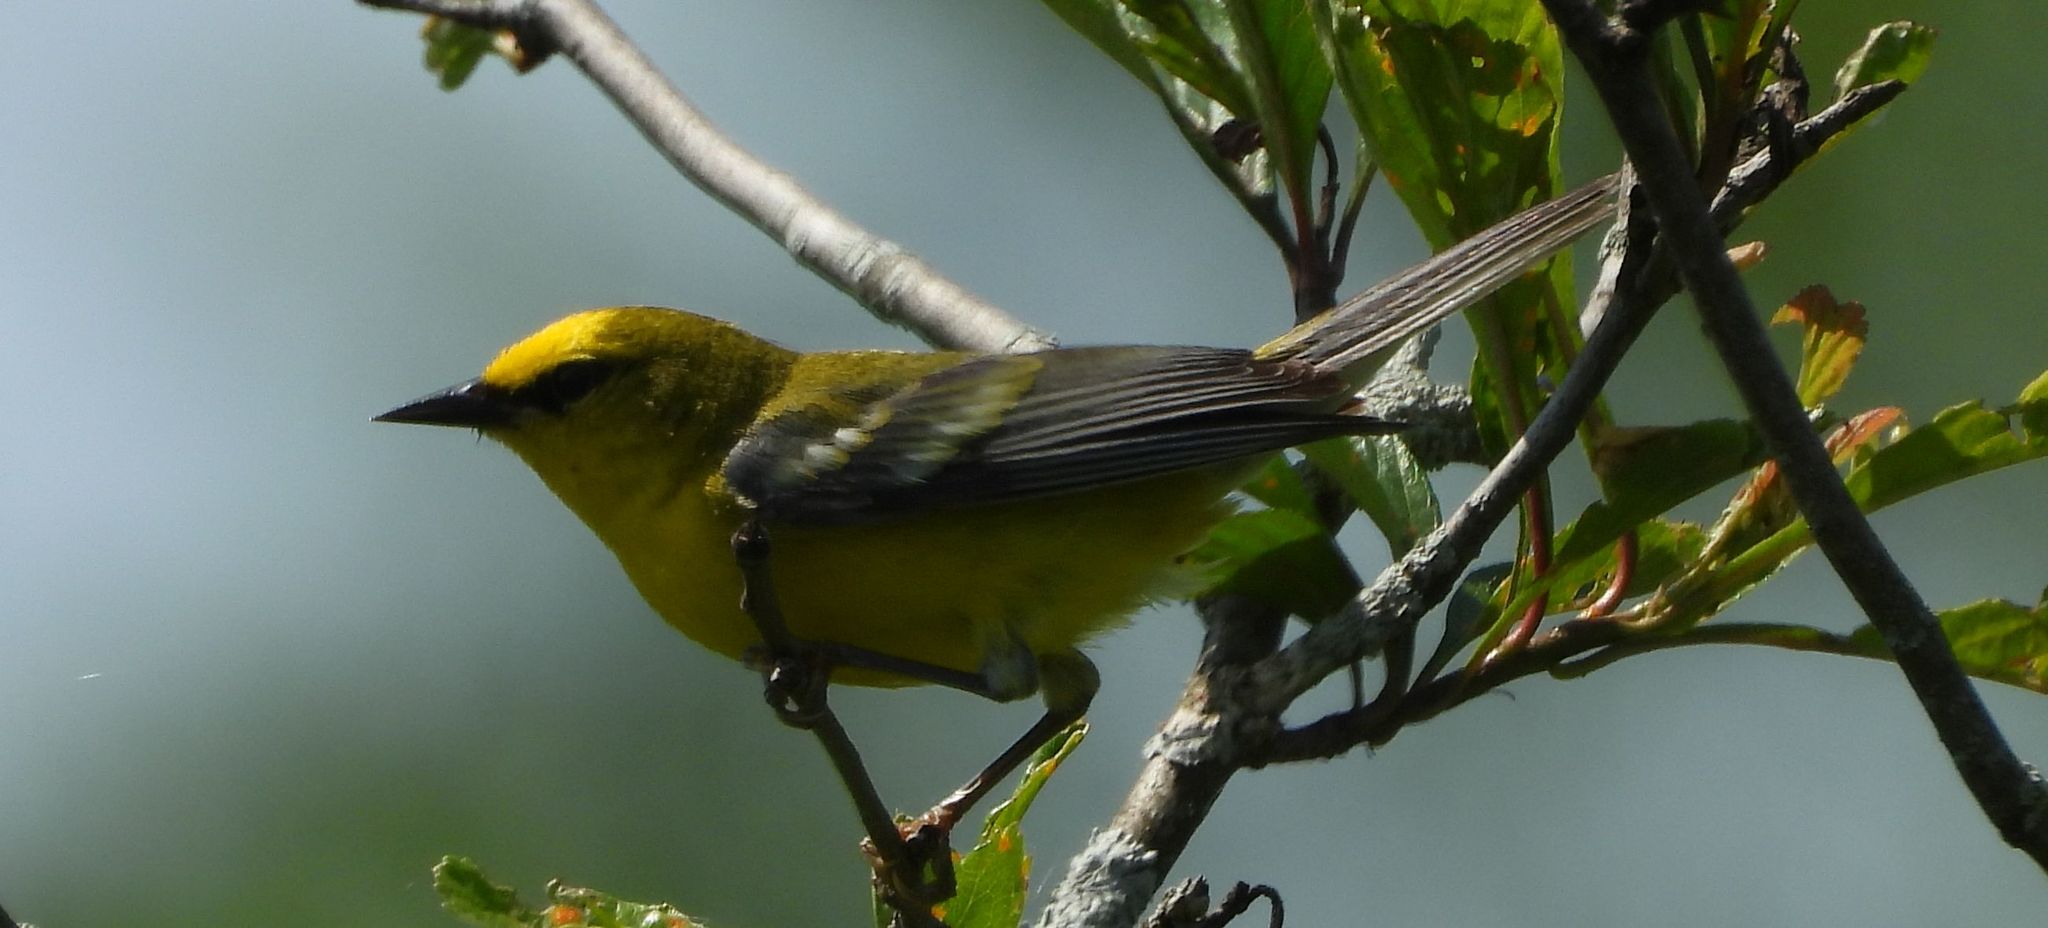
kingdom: Animalia
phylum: Chordata
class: Aves
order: Passeriformes
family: Parulidae
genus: Vermivora
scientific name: Vermivora cyanoptera
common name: Blue-winged warbler
